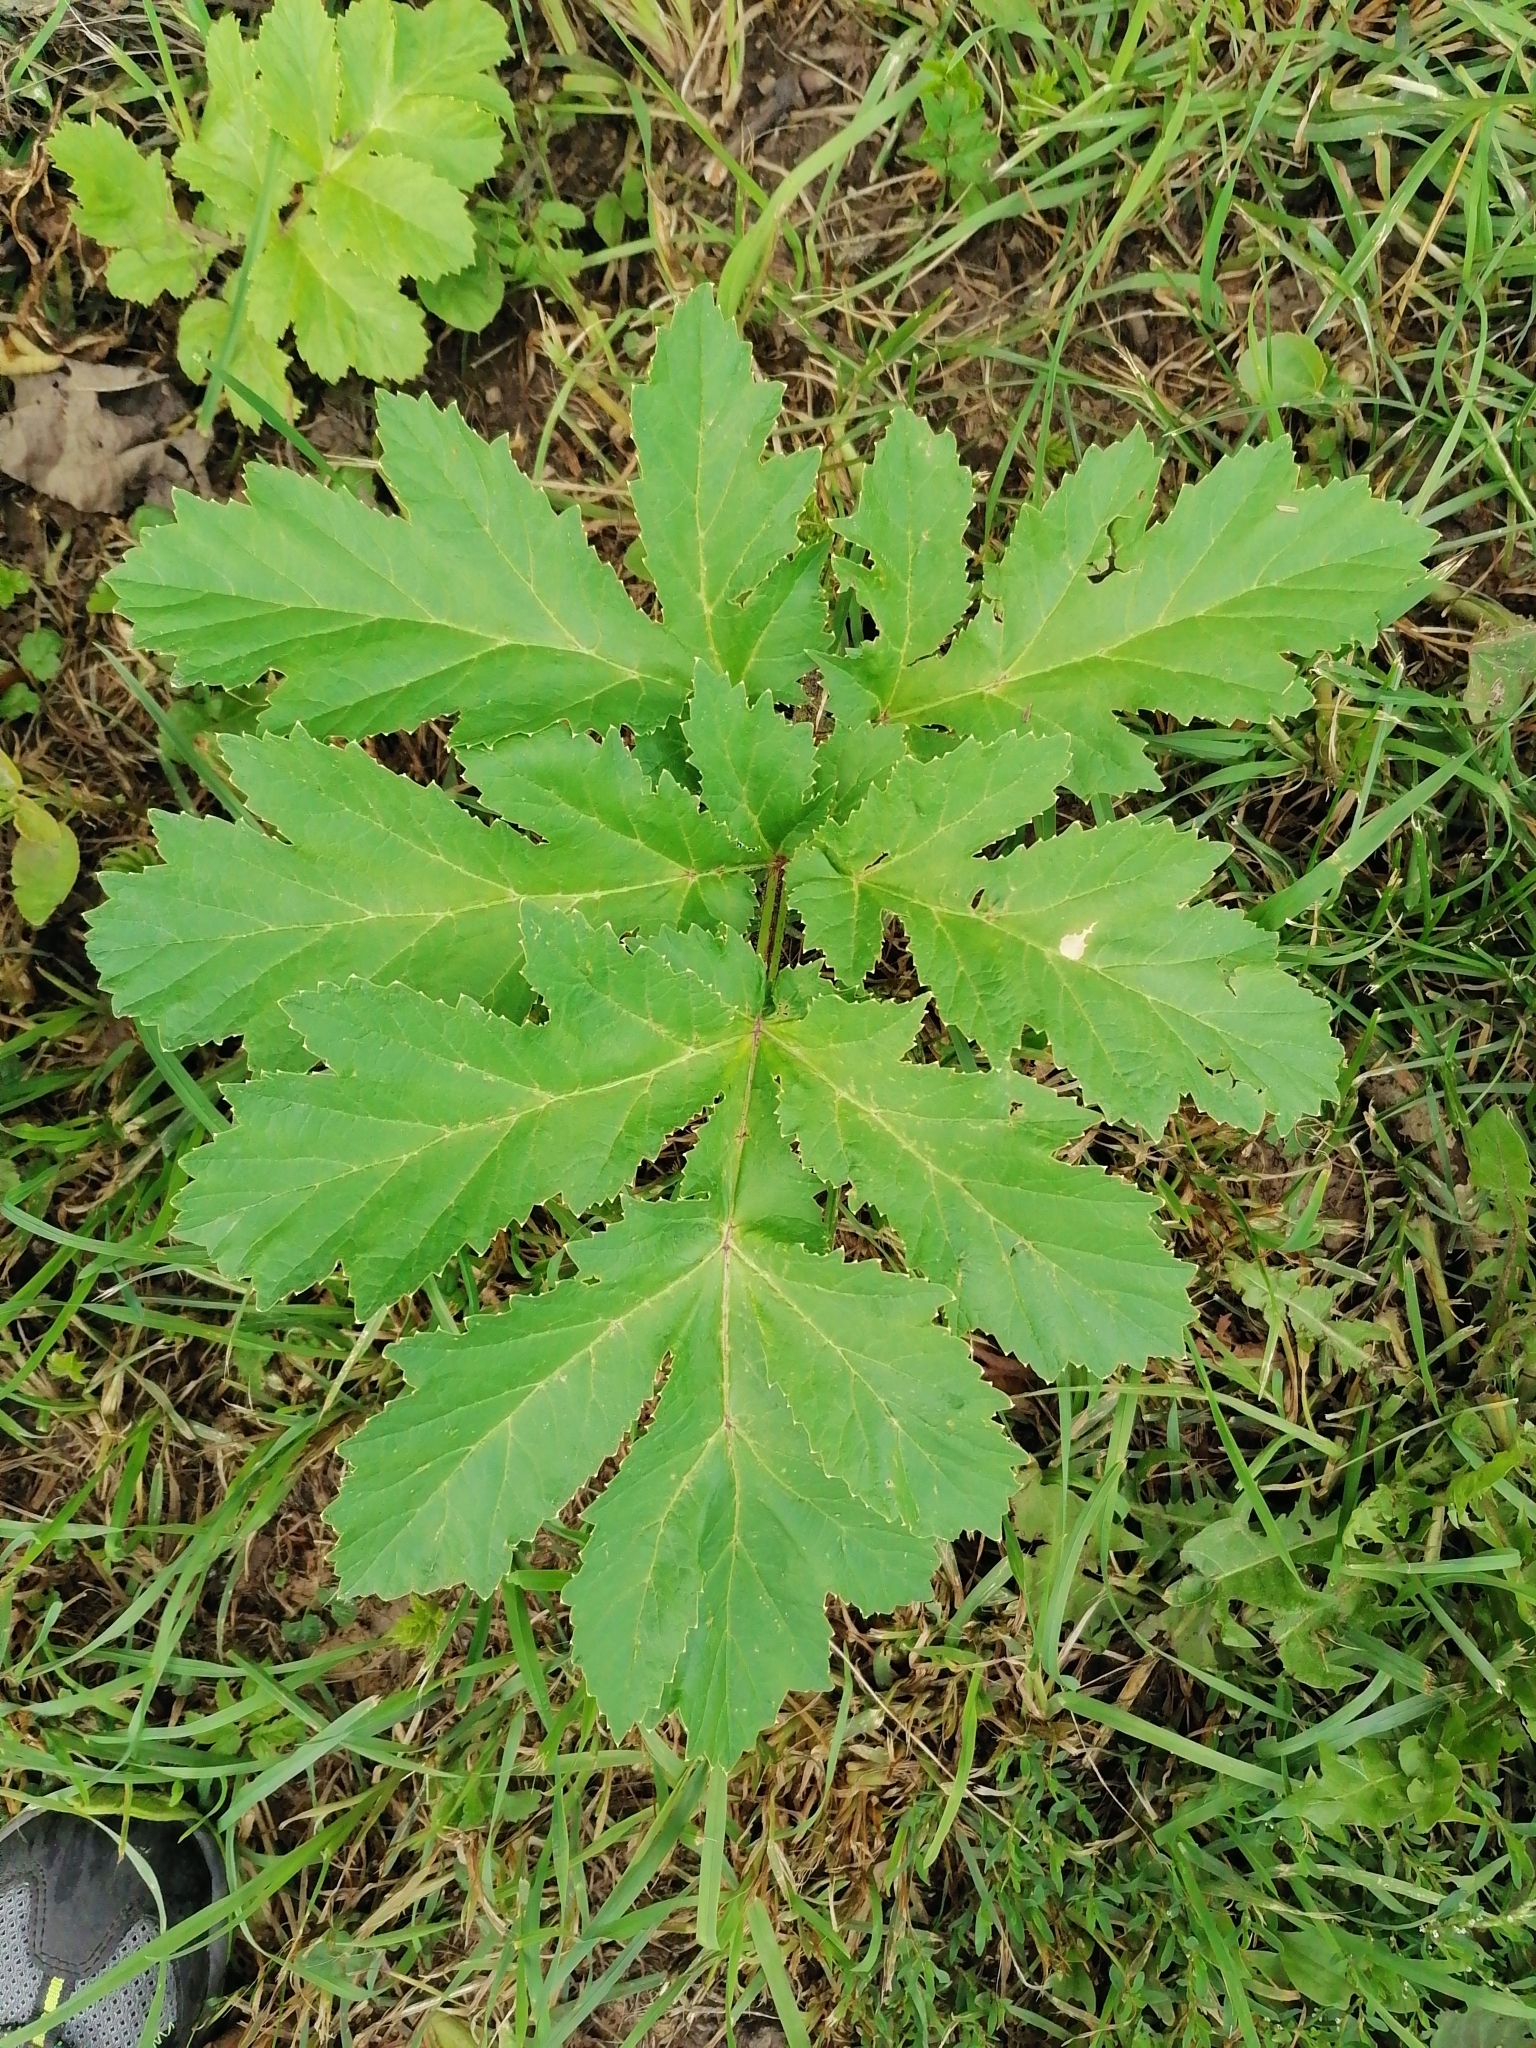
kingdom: Plantae
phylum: Tracheophyta
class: Magnoliopsida
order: Apiales
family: Apiaceae
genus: Heracleum
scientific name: Heracleum sosnowskyi
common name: Sosnowsky's hogweed
